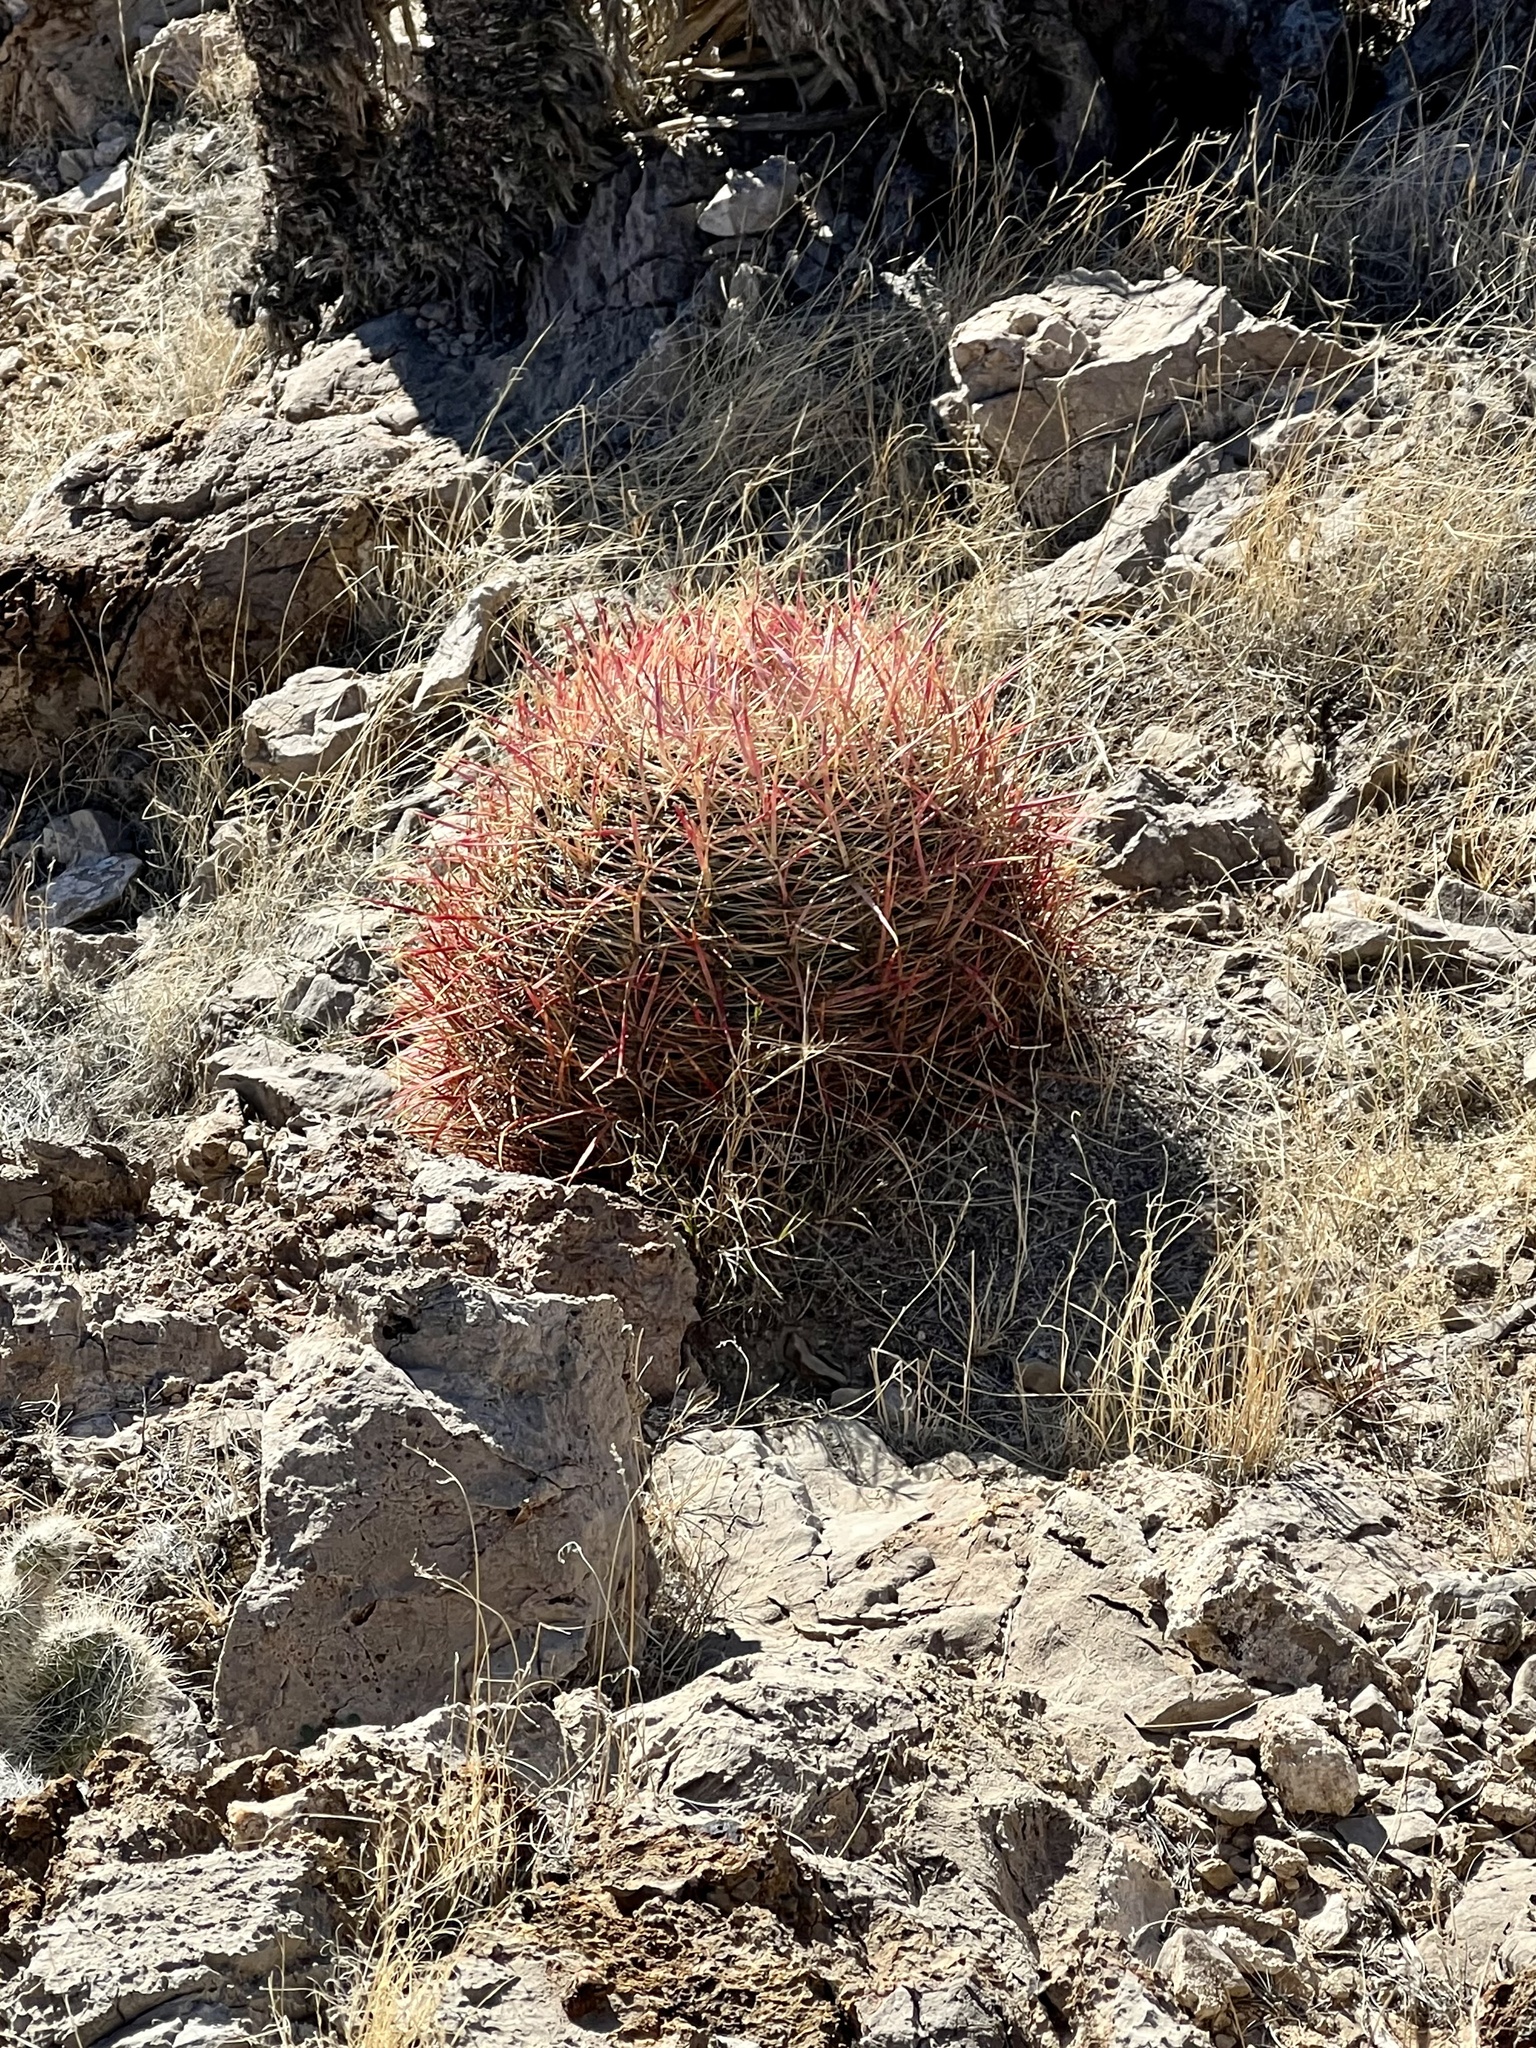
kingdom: Plantae
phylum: Tracheophyta
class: Magnoliopsida
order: Caryophyllales
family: Cactaceae
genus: Ferocactus
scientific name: Ferocactus cylindraceus
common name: California barrel cactus
